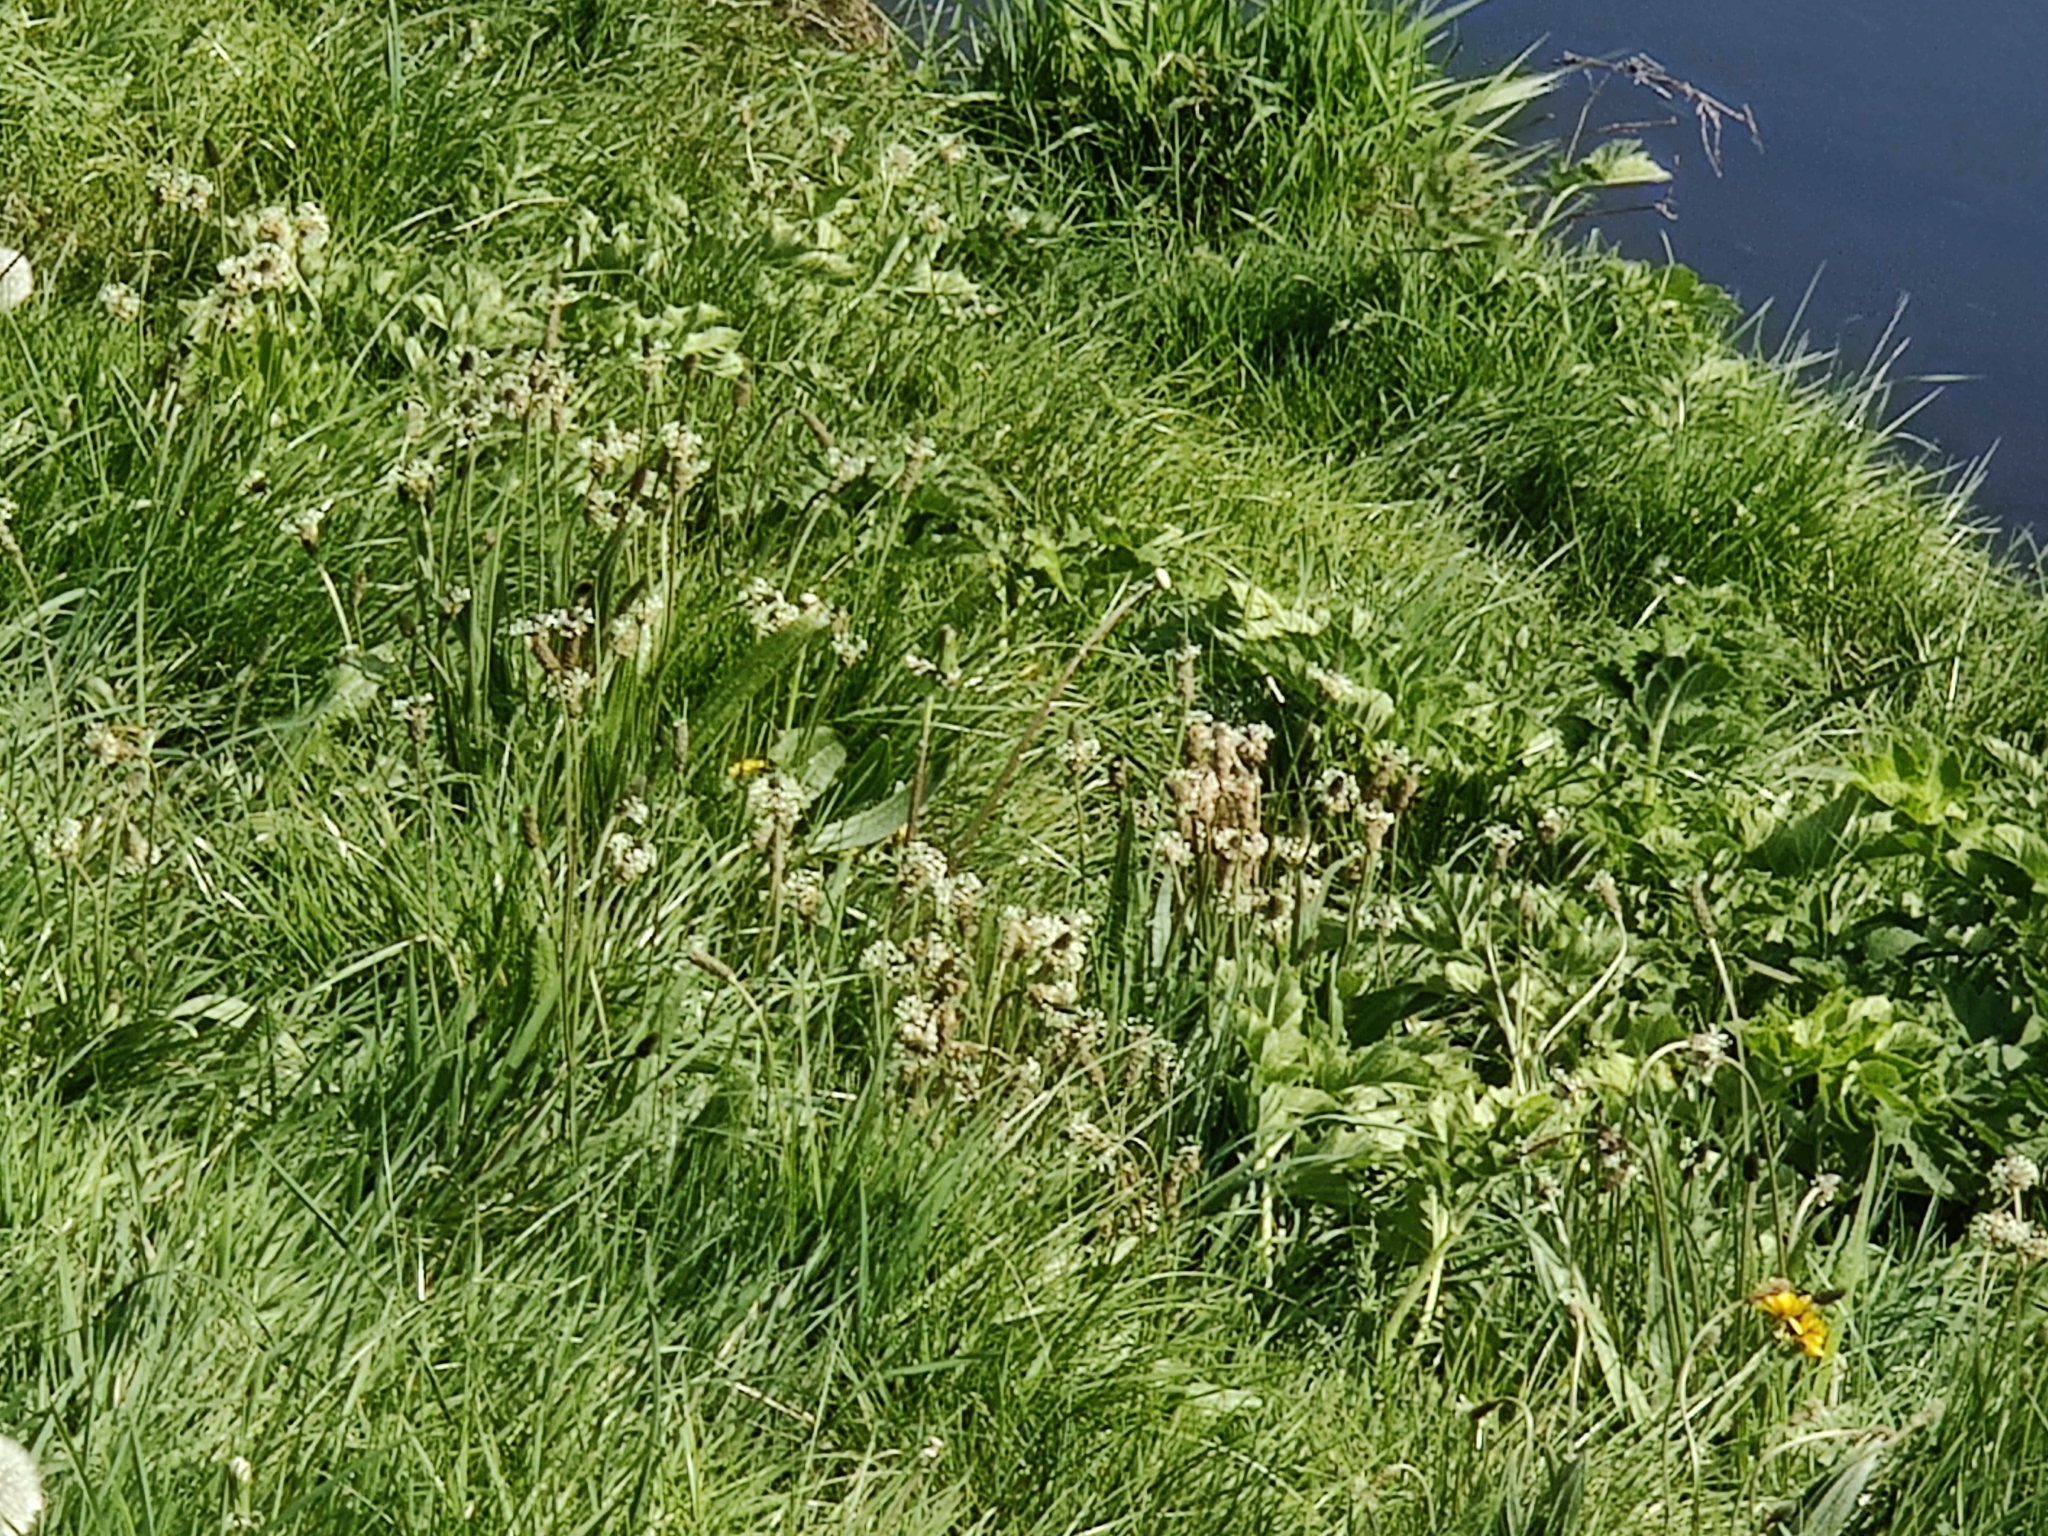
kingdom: Plantae
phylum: Tracheophyta
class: Magnoliopsida
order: Lamiales
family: Plantaginaceae
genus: Plantago
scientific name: Plantago lanceolata
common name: Ribwort plantain
